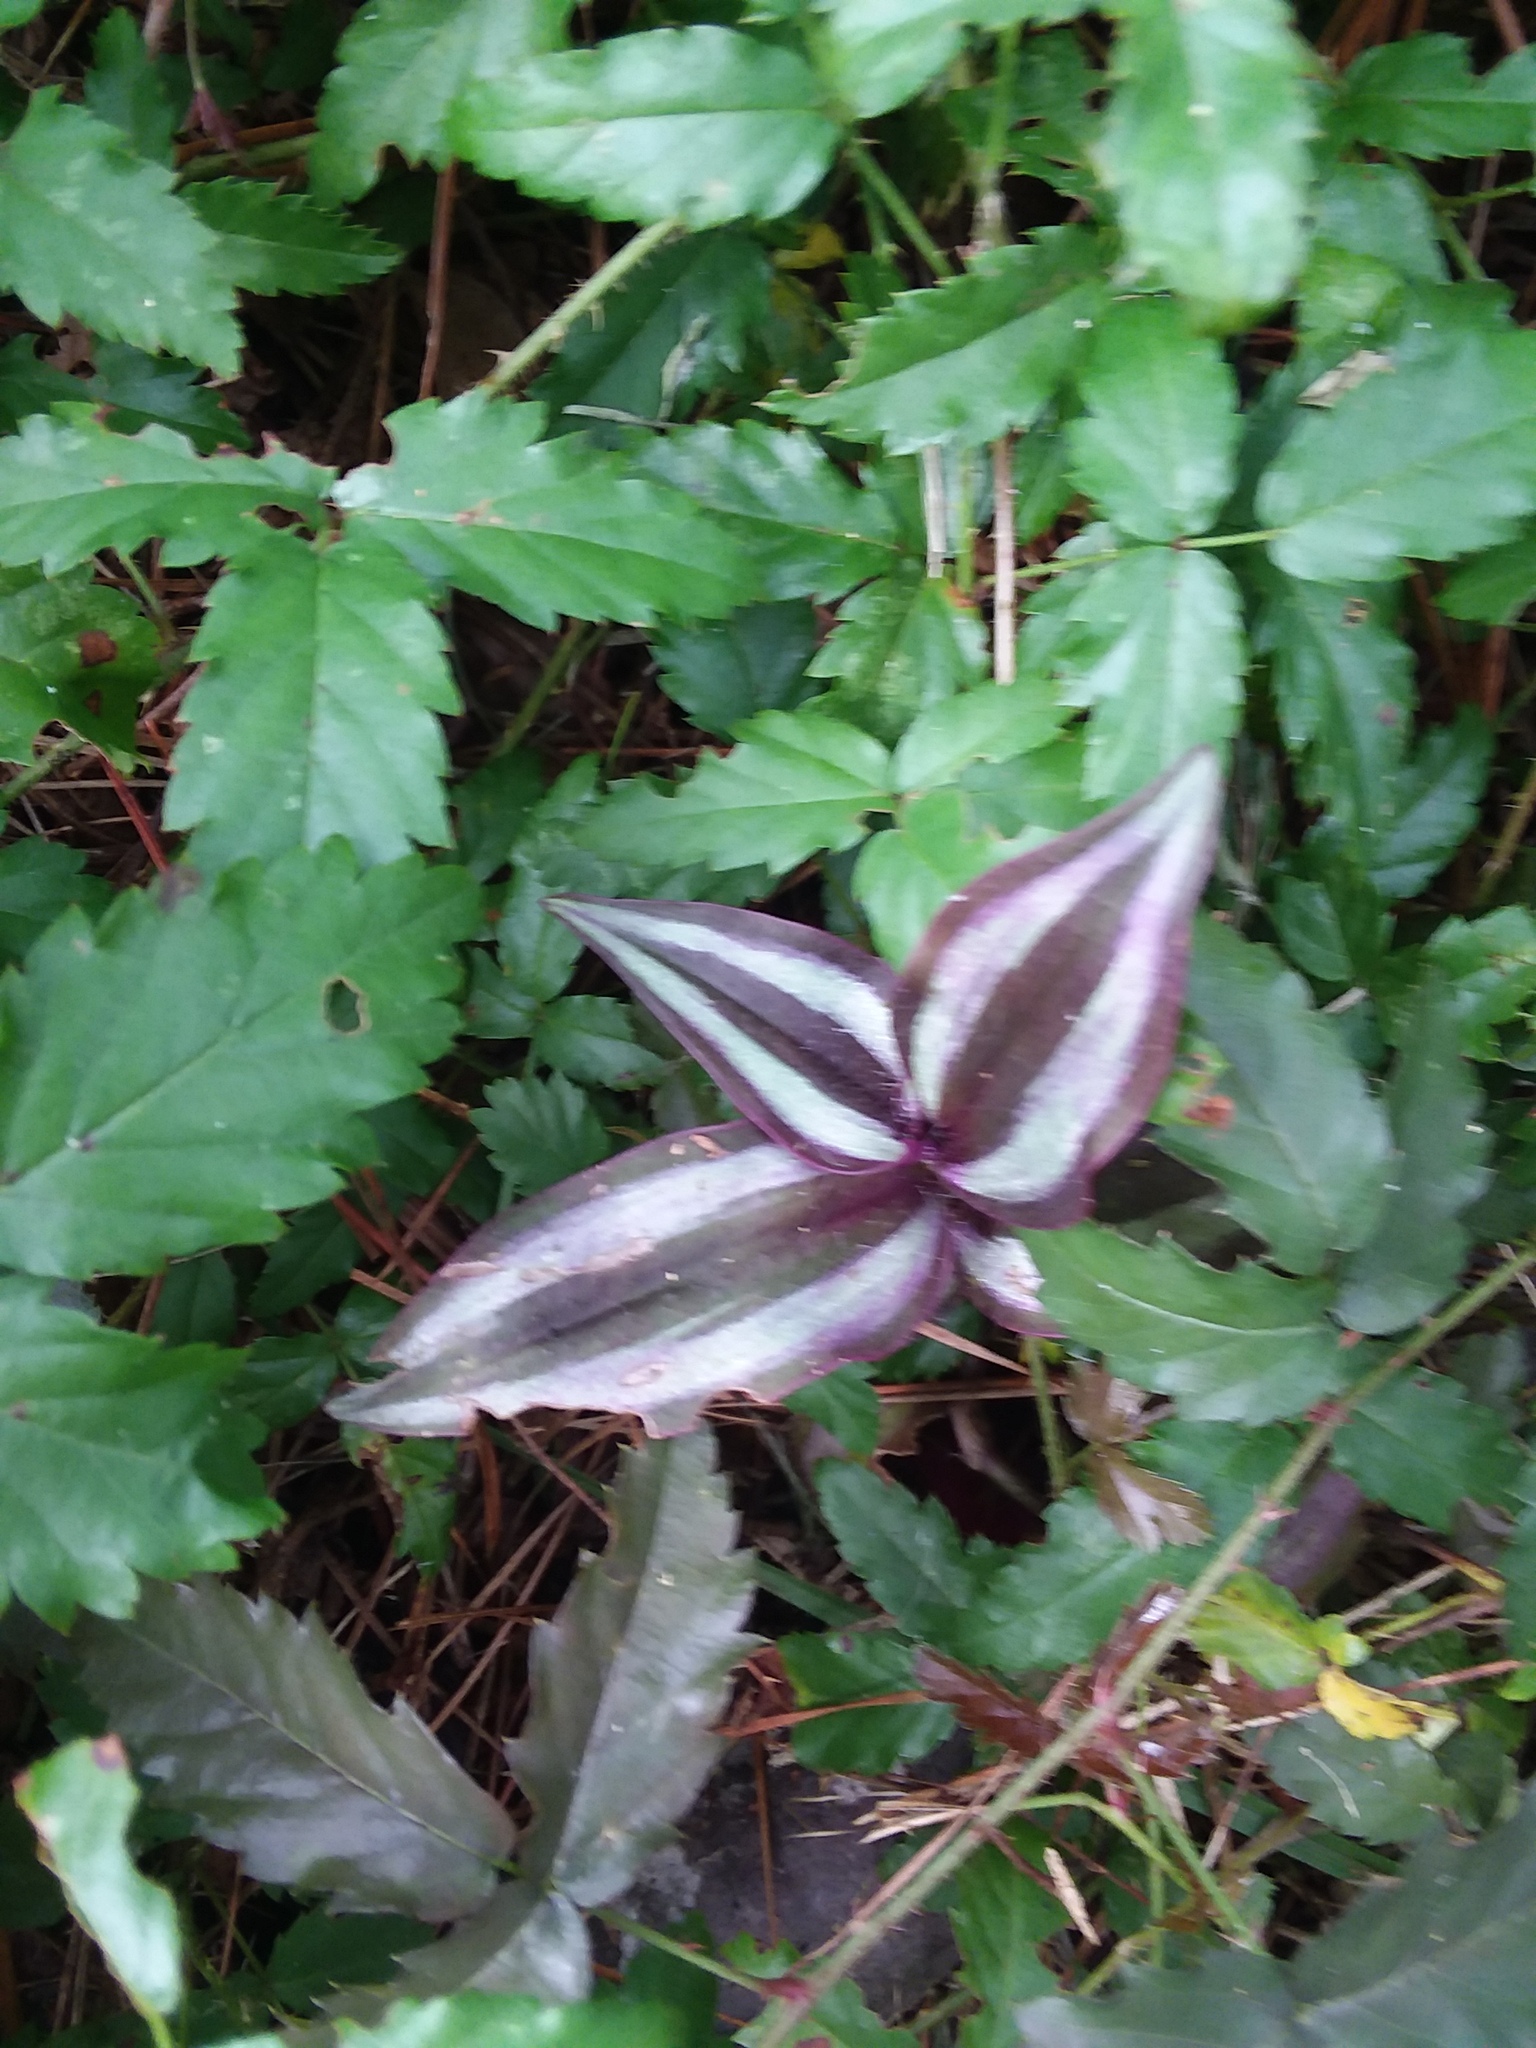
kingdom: Plantae
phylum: Tracheophyta
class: Liliopsida
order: Commelinales
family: Commelinaceae
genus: Tradescantia
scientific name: Tradescantia zebrina
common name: Inchplant
